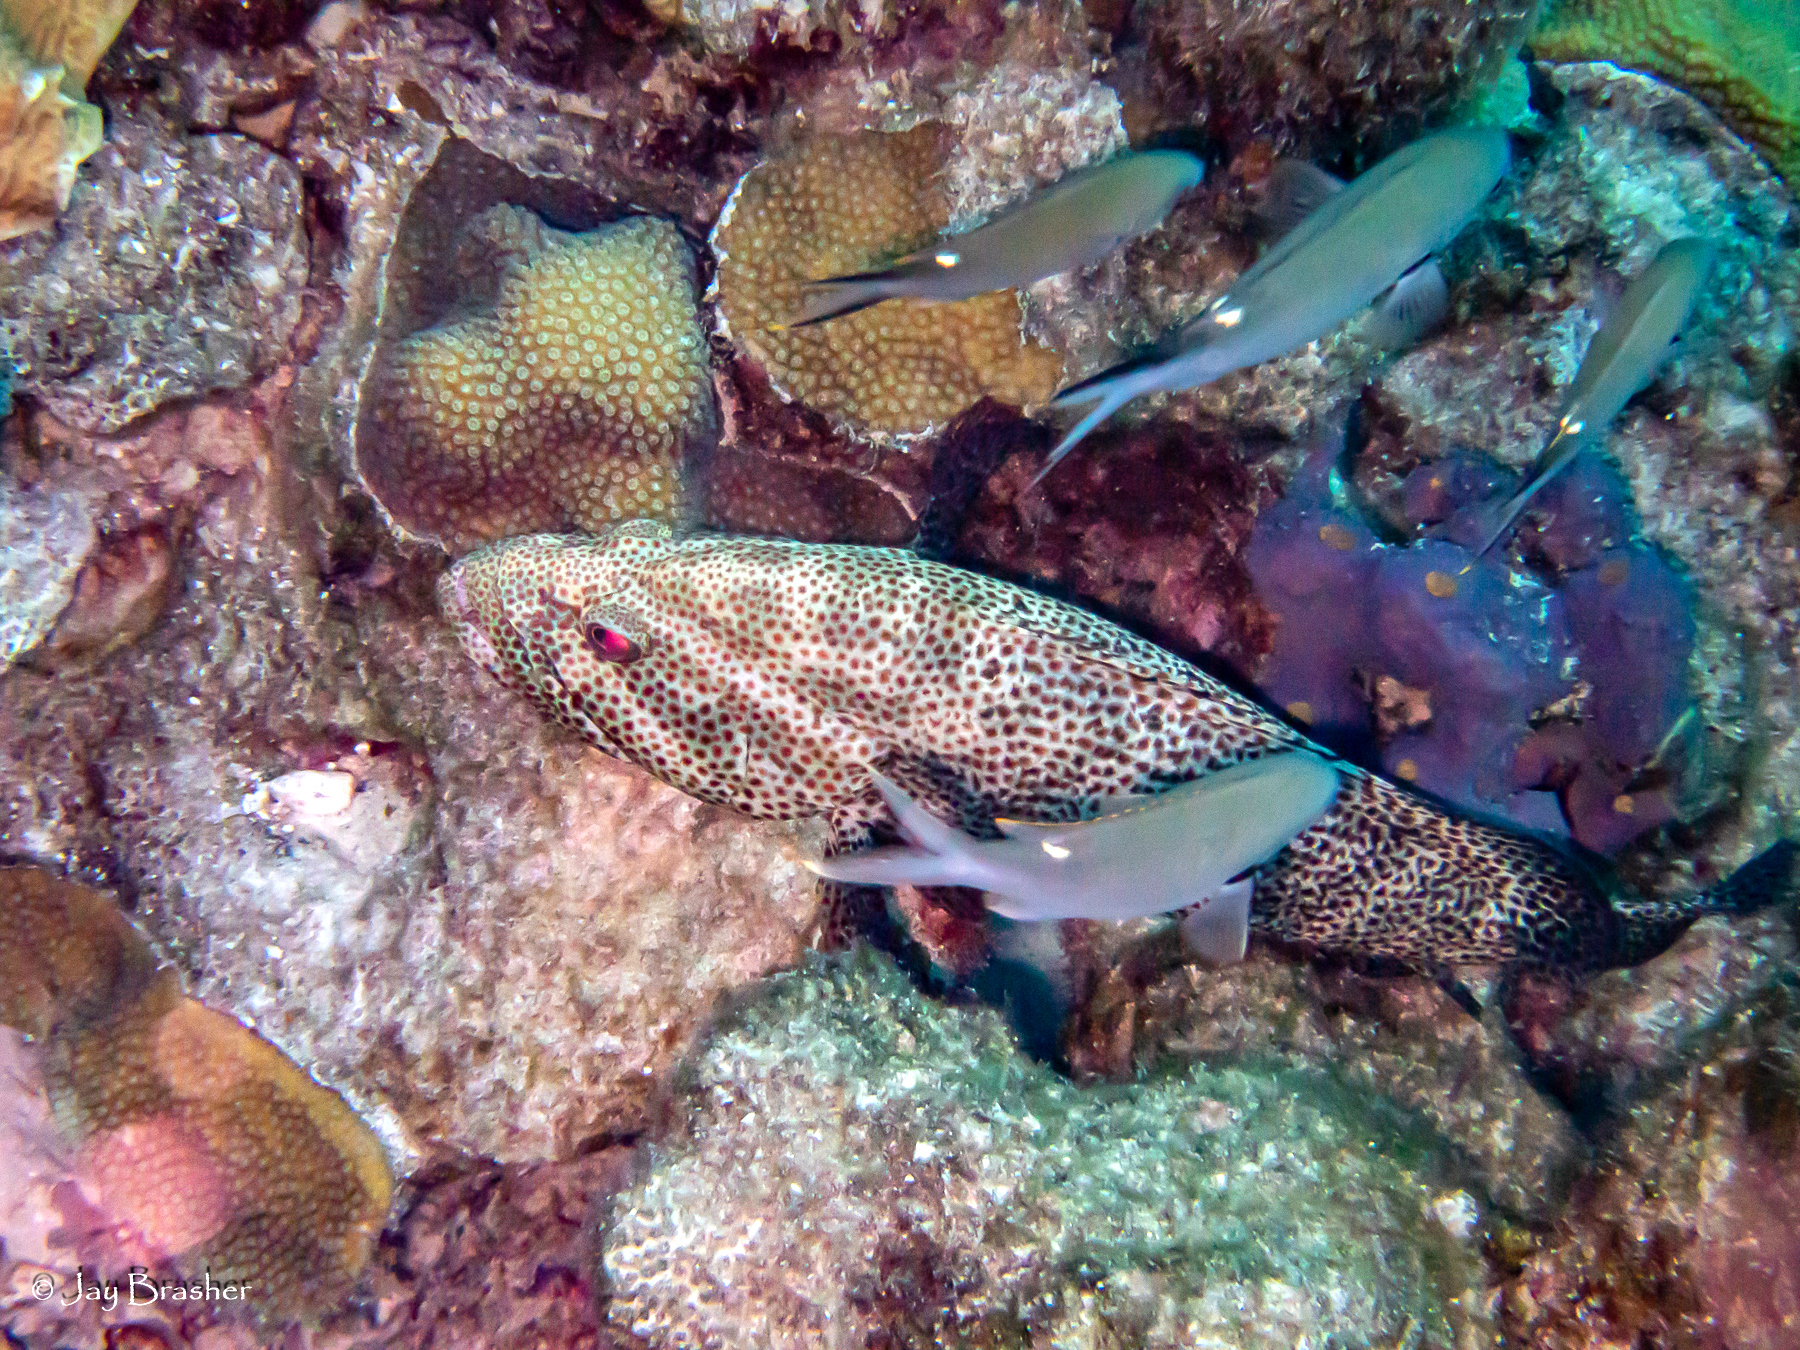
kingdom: Animalia
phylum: Chordata
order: Perciformes
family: Serranidae
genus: Cephalopholis
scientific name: Cephalopholis cruentata
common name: Graysby
